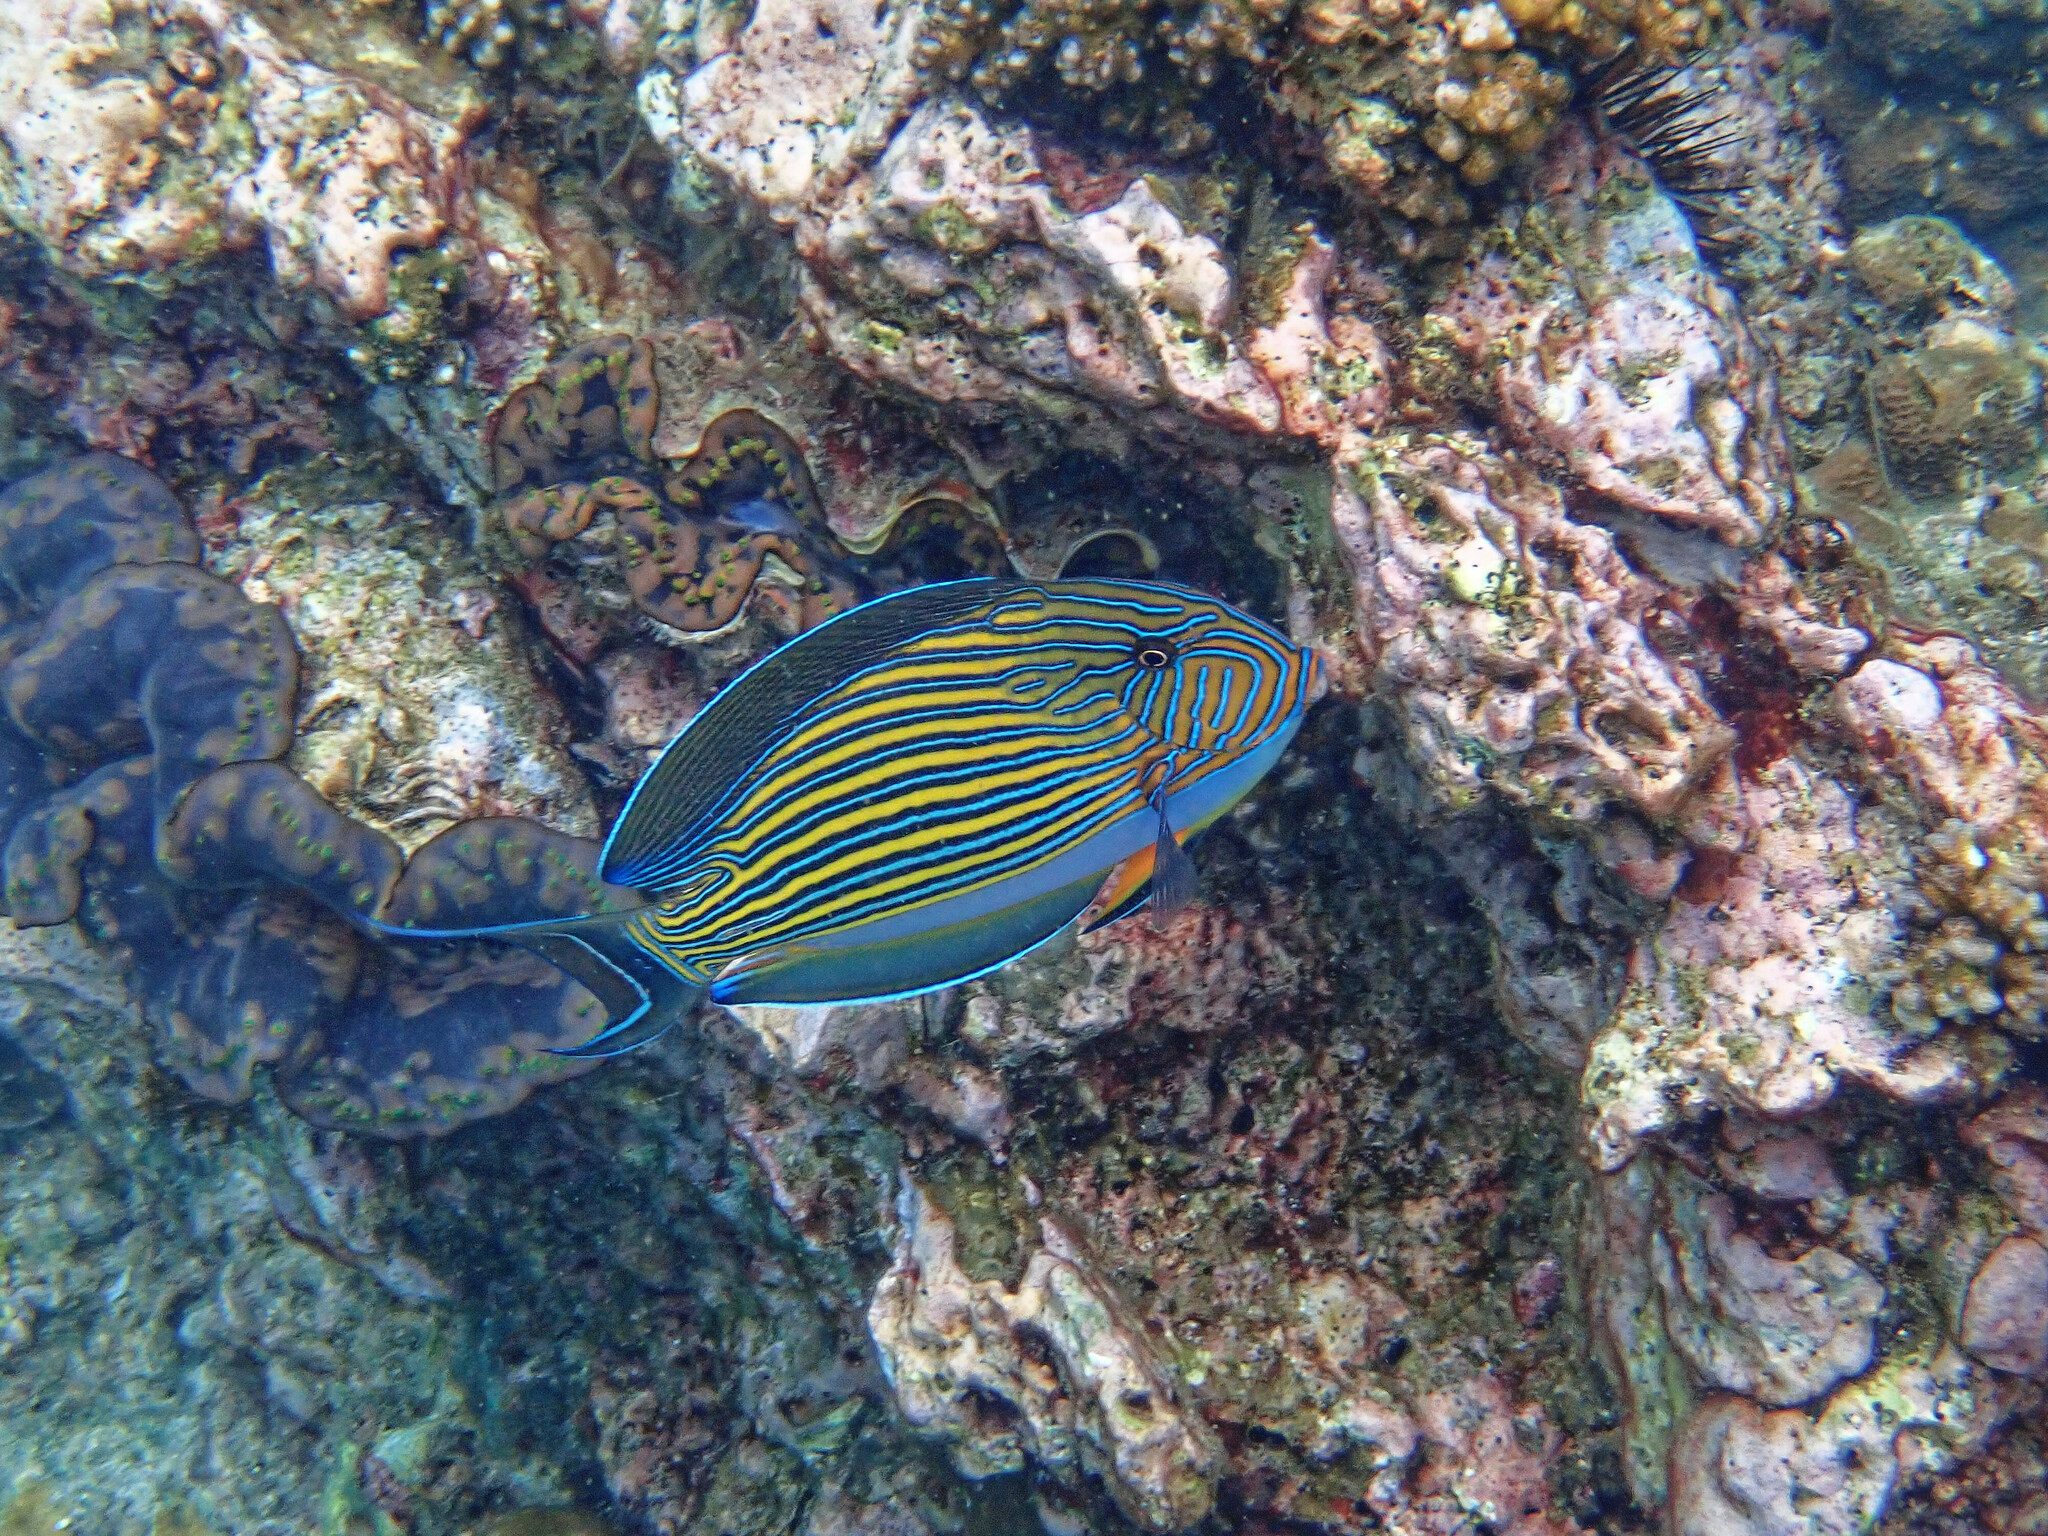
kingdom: Animalia
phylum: Chordata
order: Perciformes
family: Acanthuridae
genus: Acanthurus
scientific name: Acanthurus lineatus
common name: Striped surgeonfish
